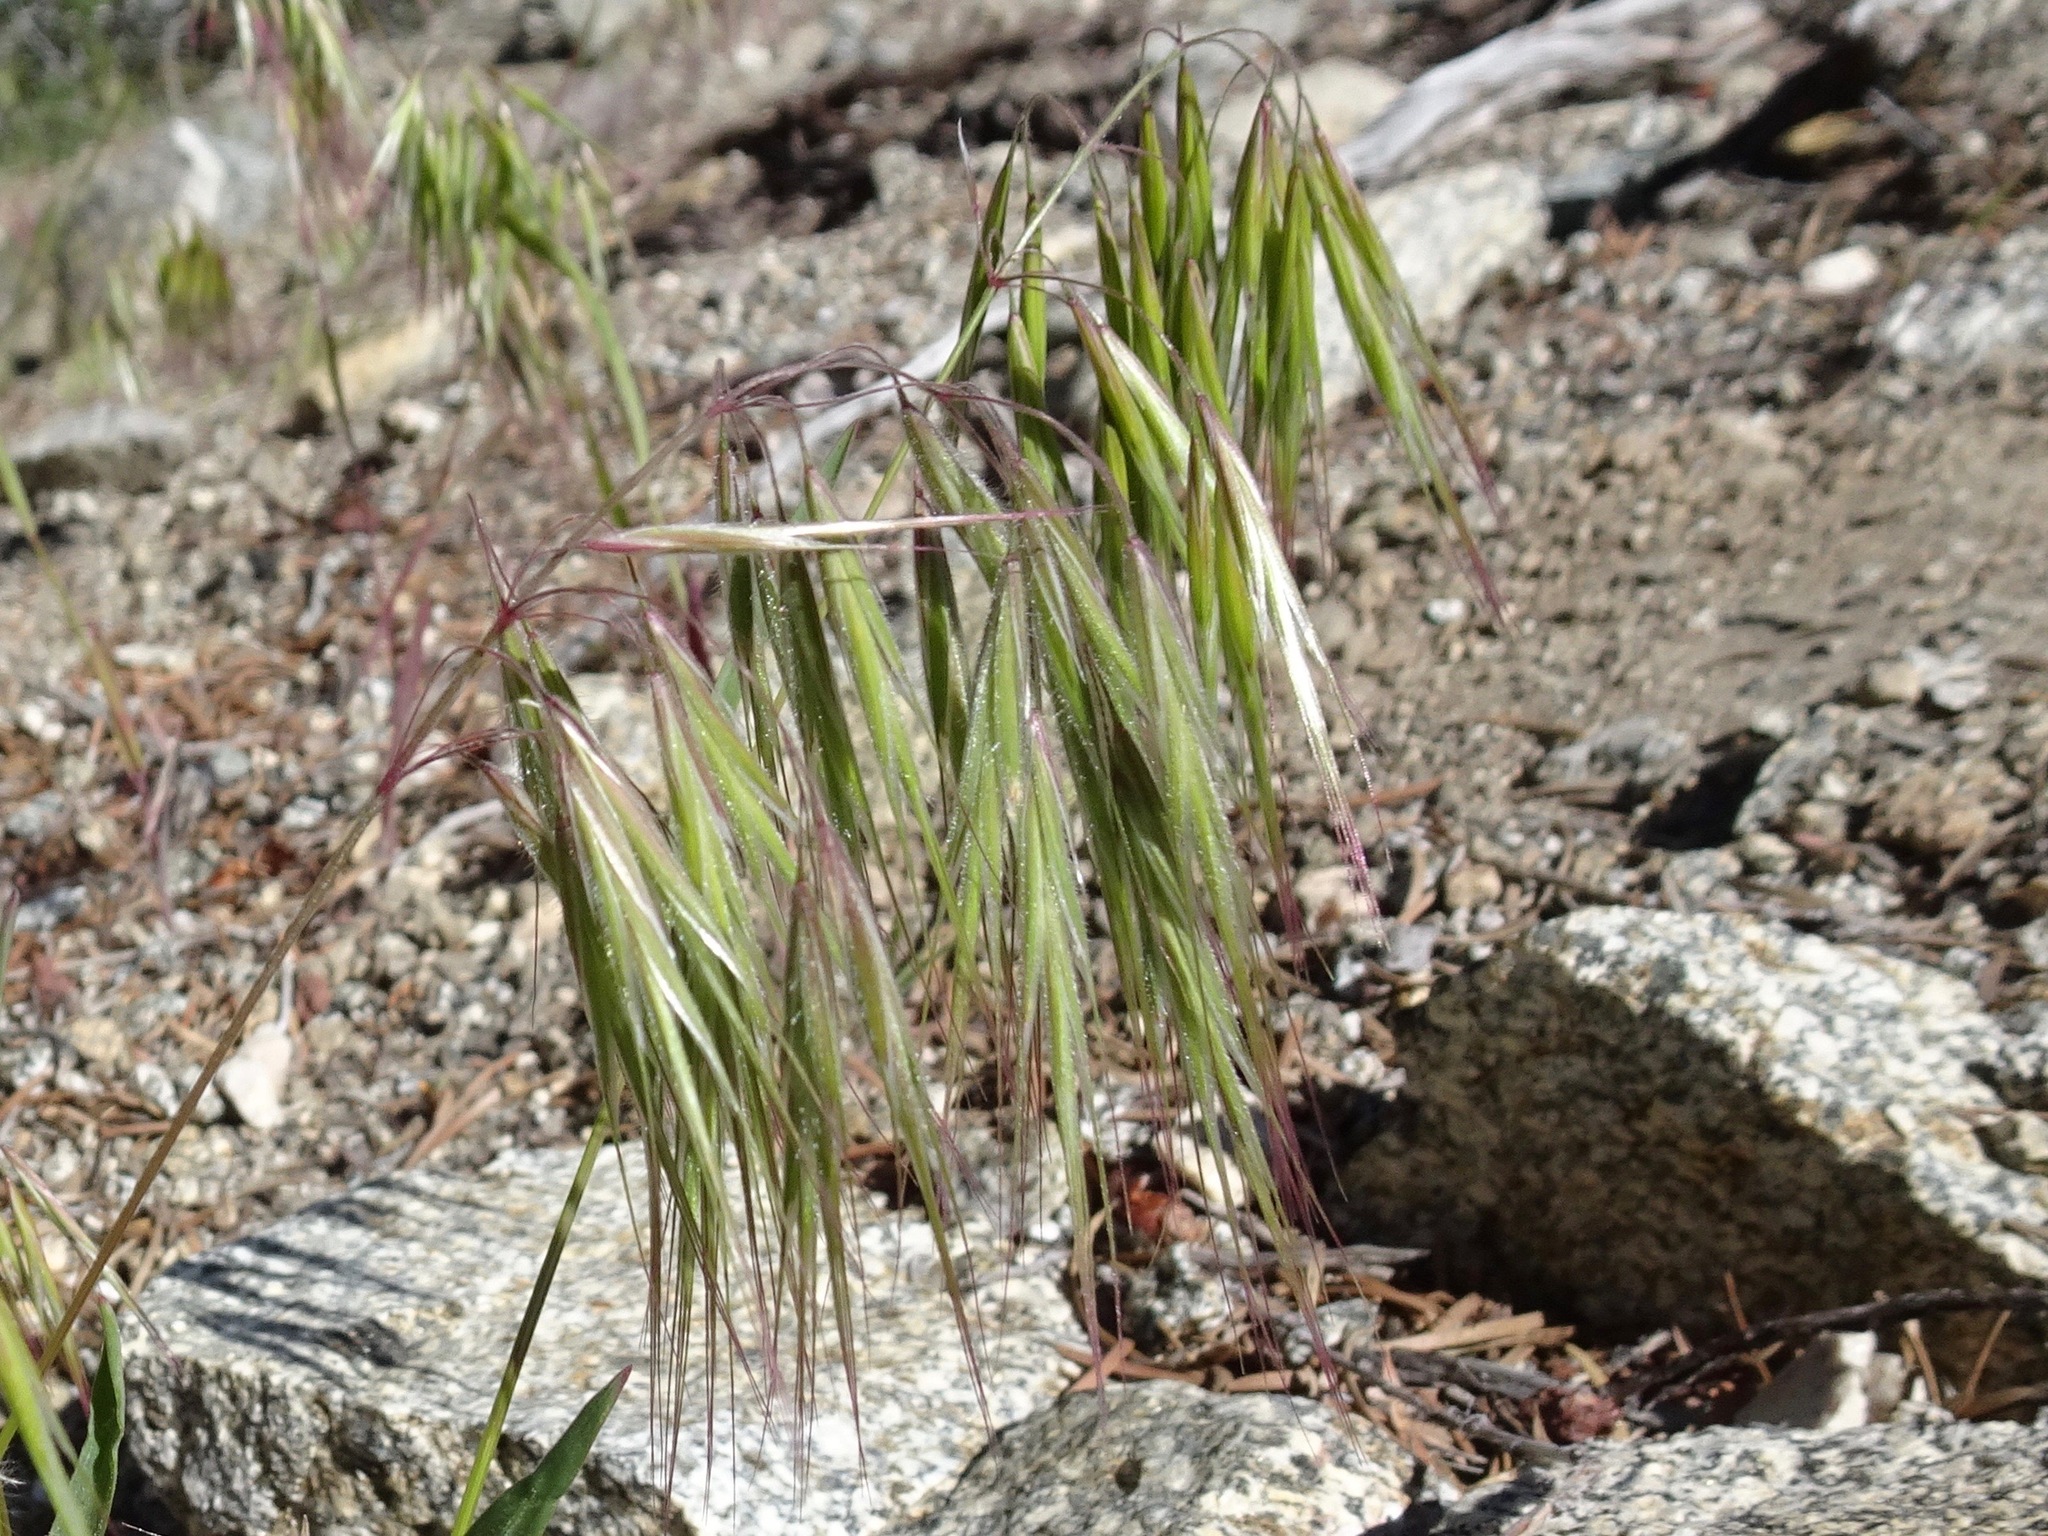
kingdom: Plantae
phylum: Tracheophyta
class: Liliopsida
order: Poales
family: Poaceae
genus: Bromus
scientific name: Bromus tectorum
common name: Cheatgrass
